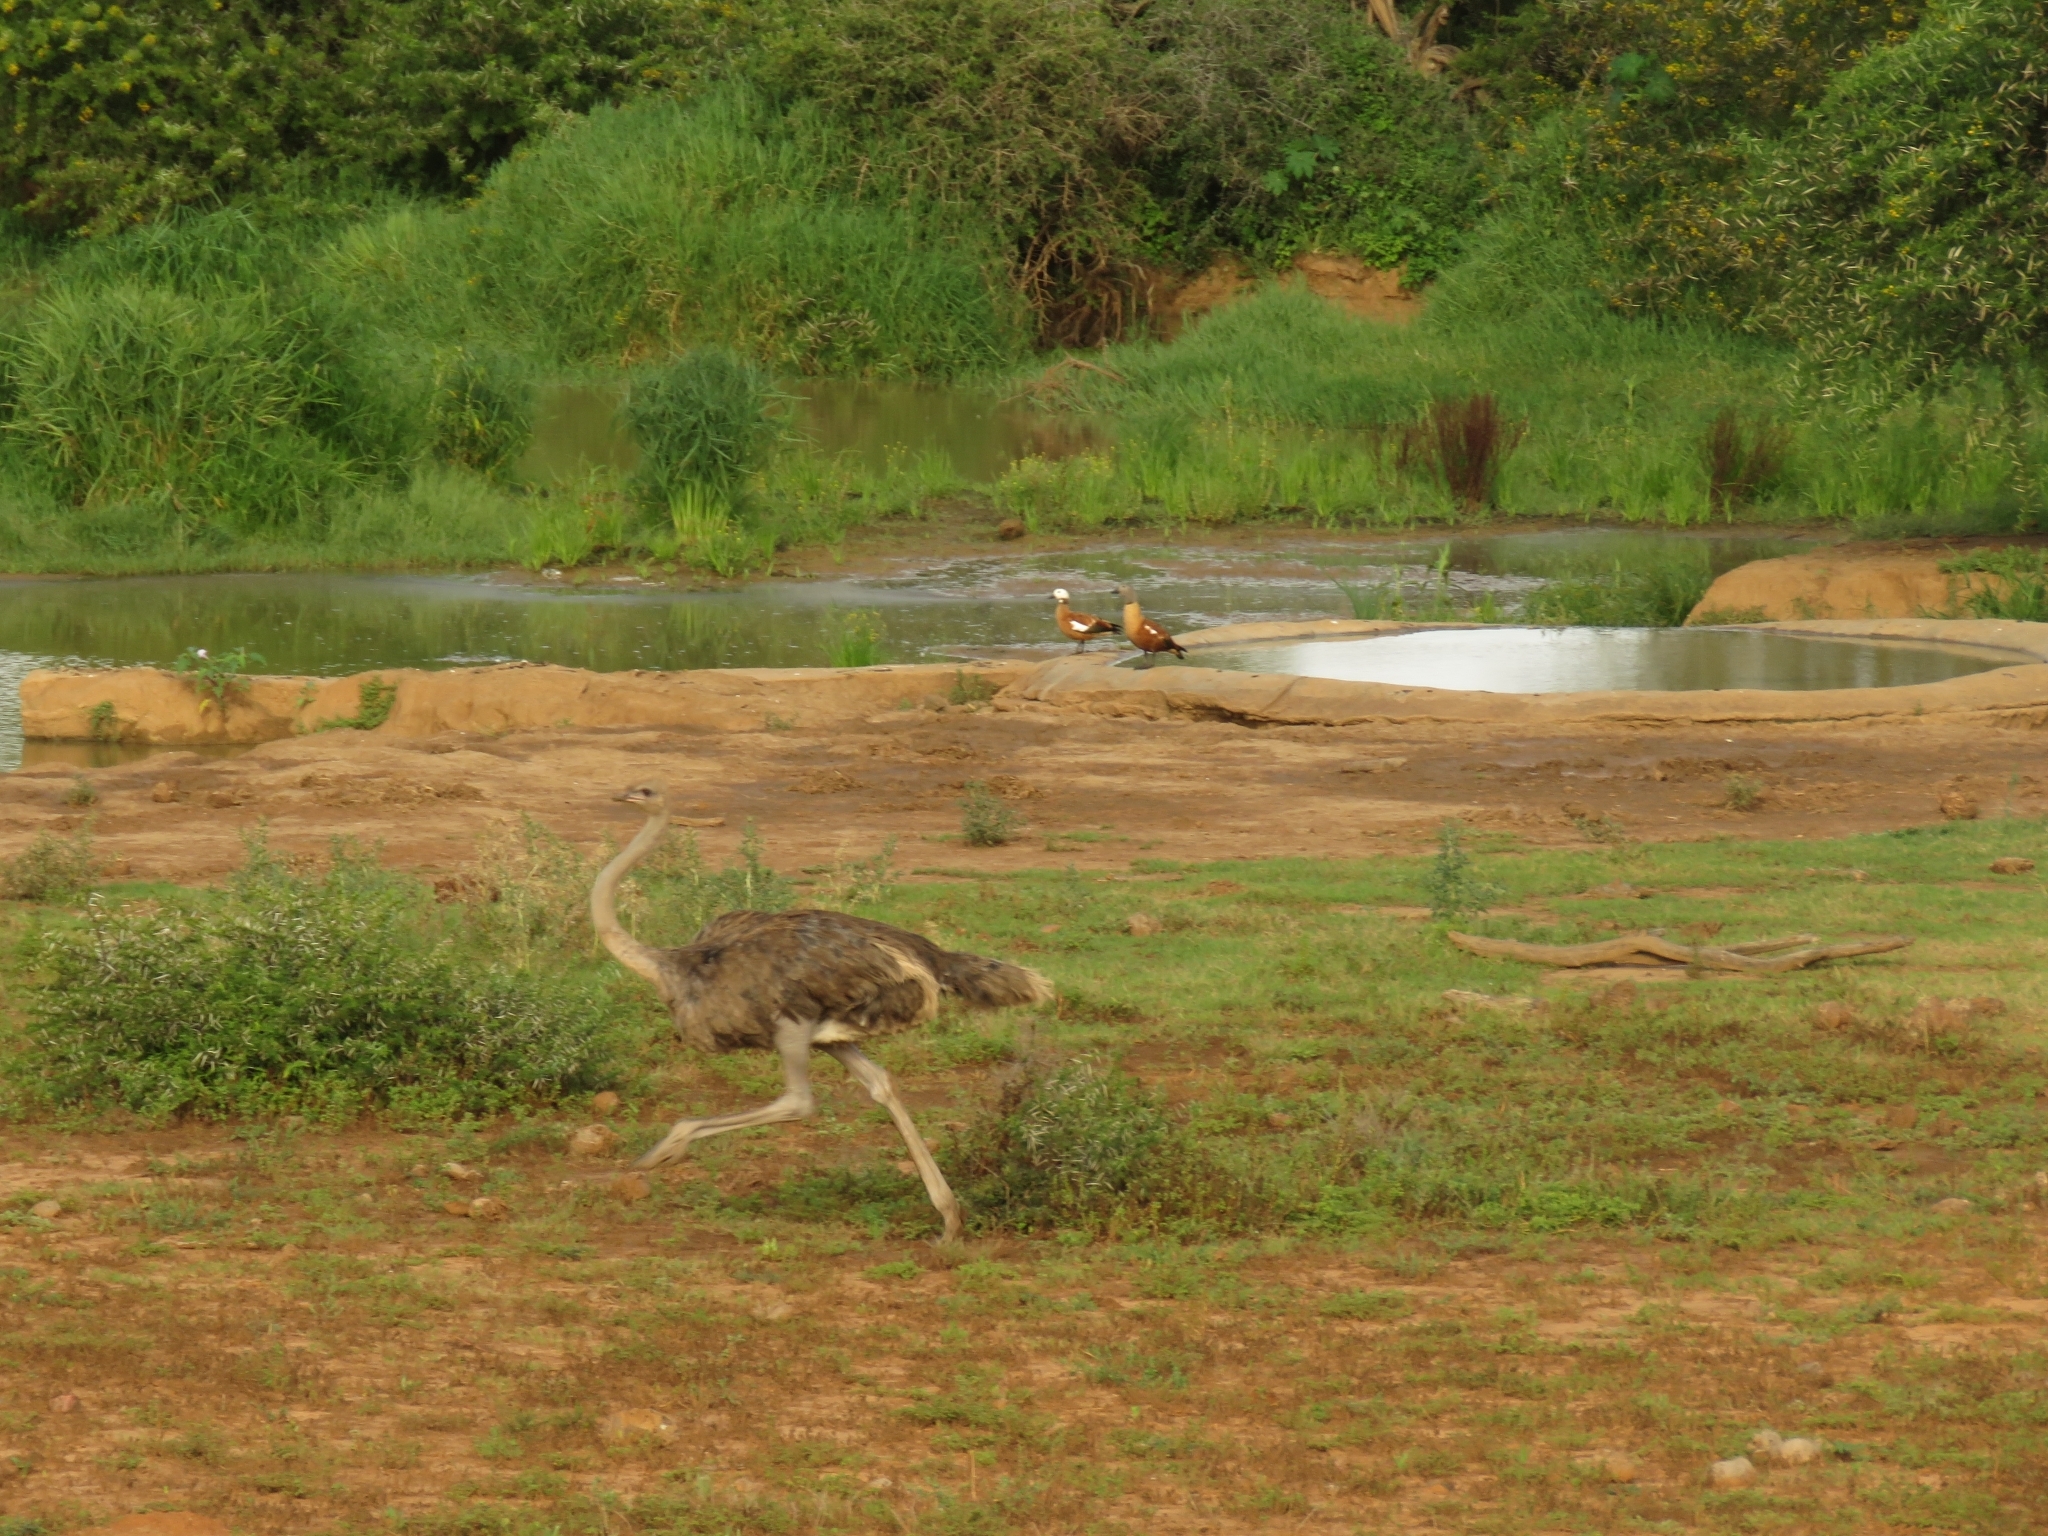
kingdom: Animalia
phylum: Chordata
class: Aves
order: Struthioniformes
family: Struthionidae
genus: Struthio
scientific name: Struthio camelus
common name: Common ostrich
